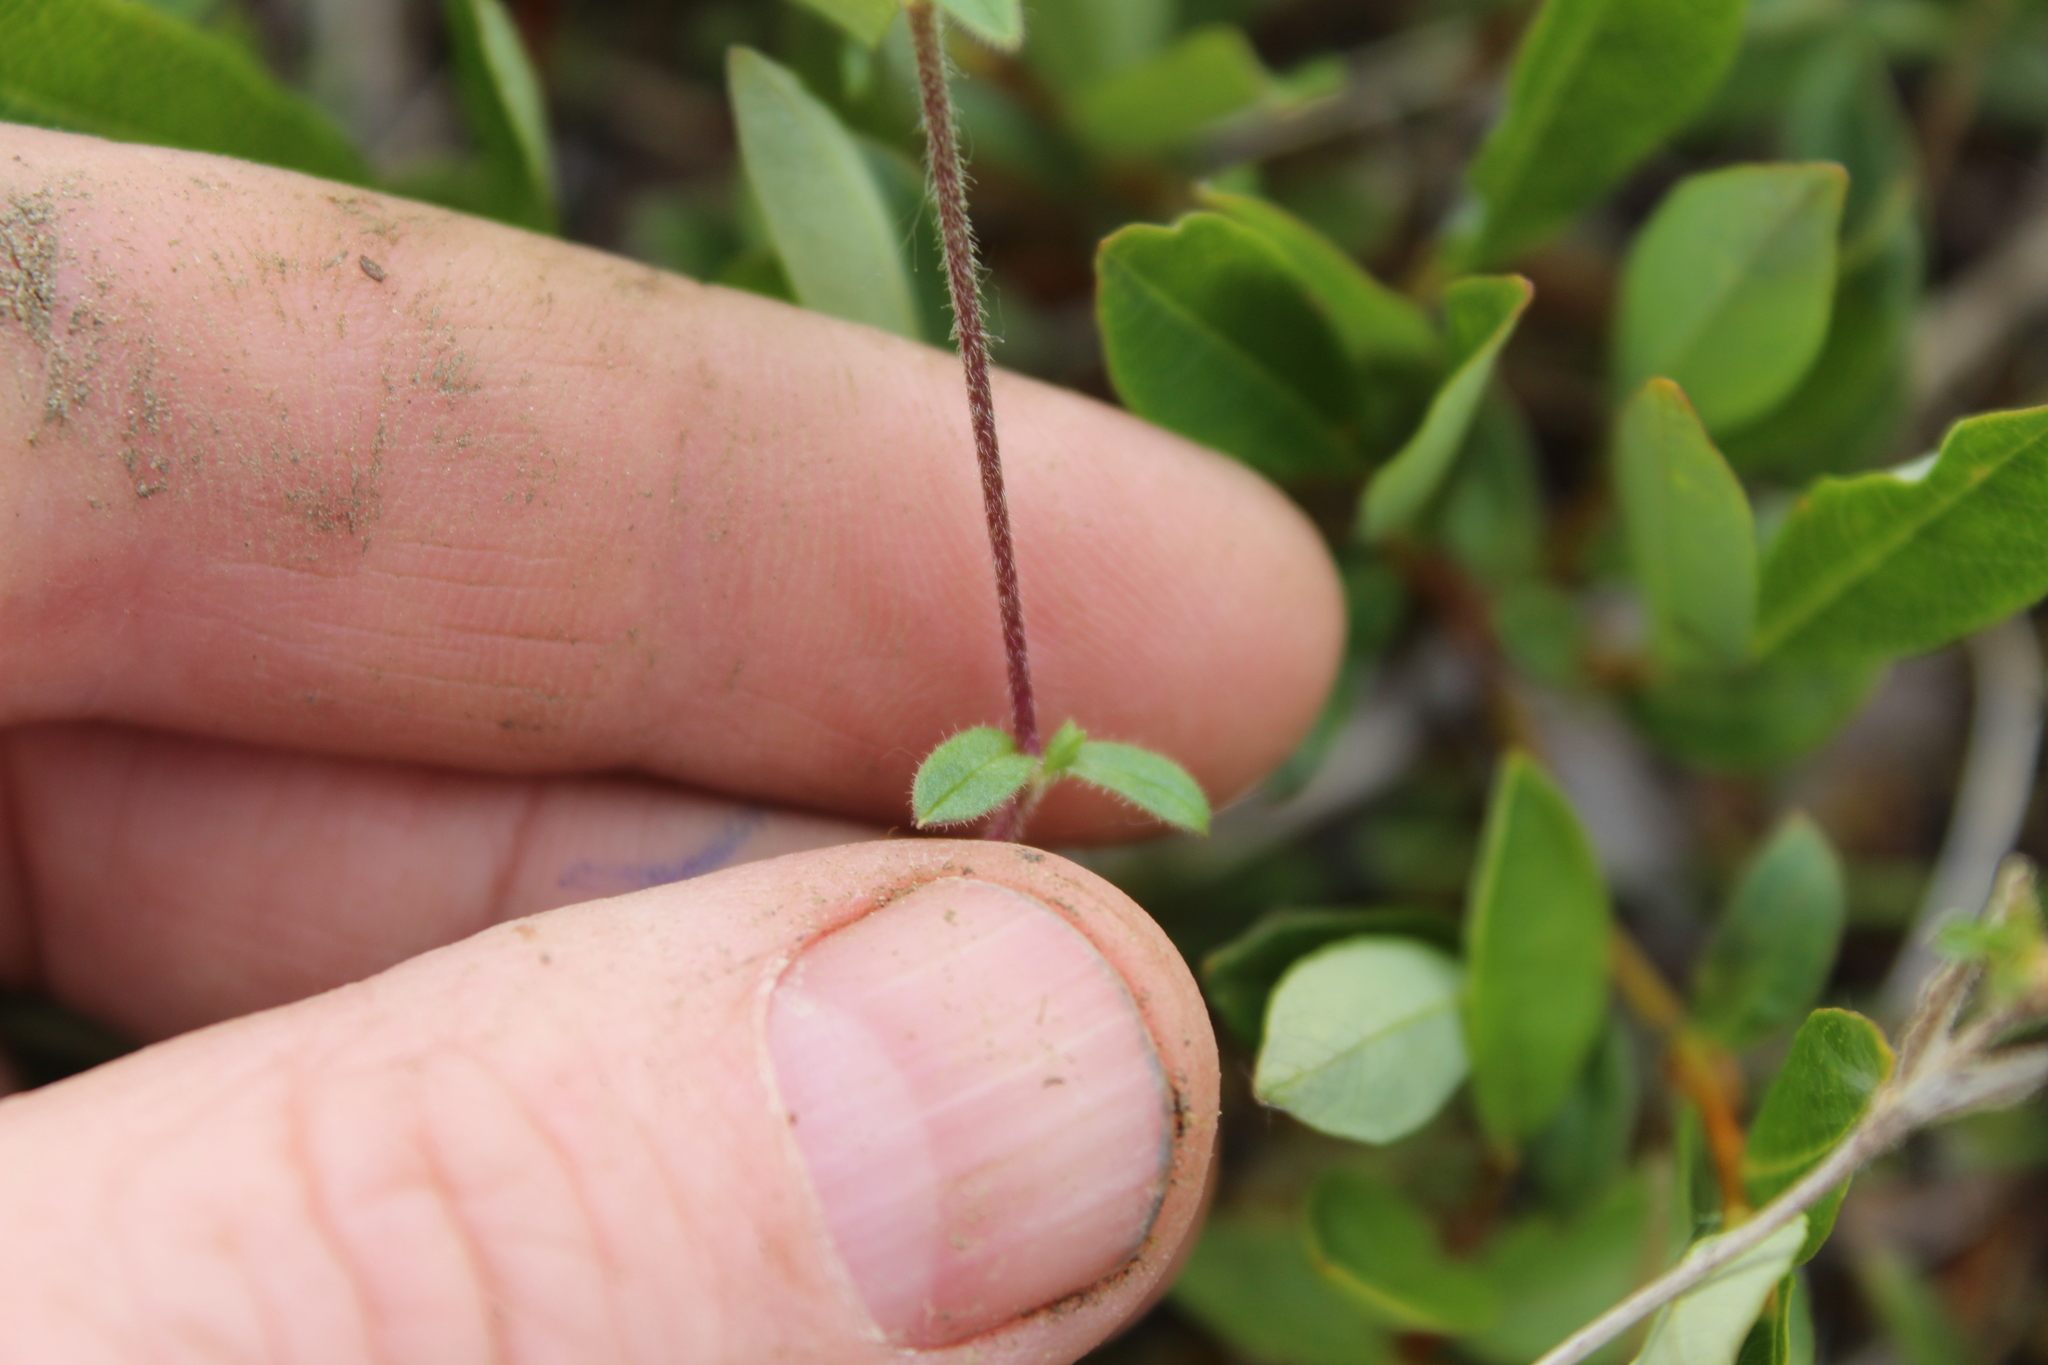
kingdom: Plantae
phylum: Tracheophyta
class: Magnoliopsida
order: Caryophyllales
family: Caryophyllaceae
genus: Cerastium
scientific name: Cerastium regelii
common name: Regel's chickweed
